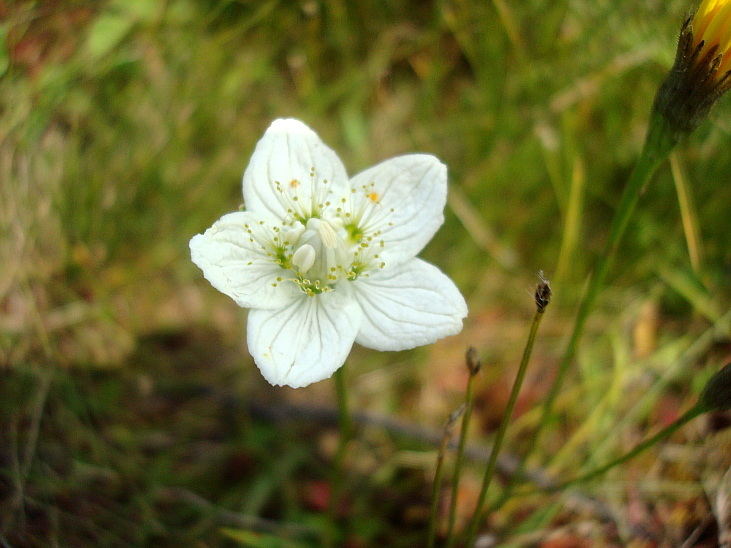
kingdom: Plantae
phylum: Tracheophyta
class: Magnoliopsida
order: Celastrales
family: Parnassiaceae
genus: Parnassia
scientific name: Parnassia palustris
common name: Grass-of-parnassus
